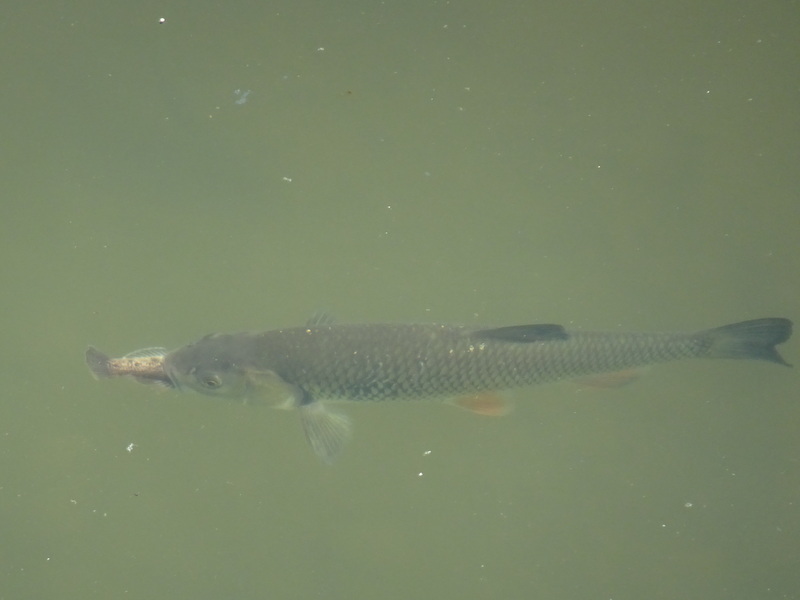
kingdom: Animalia
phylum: Chordata
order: Cypriniformes
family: Cyprinidae
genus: Squalius
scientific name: Squalius cephalus
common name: Chub
